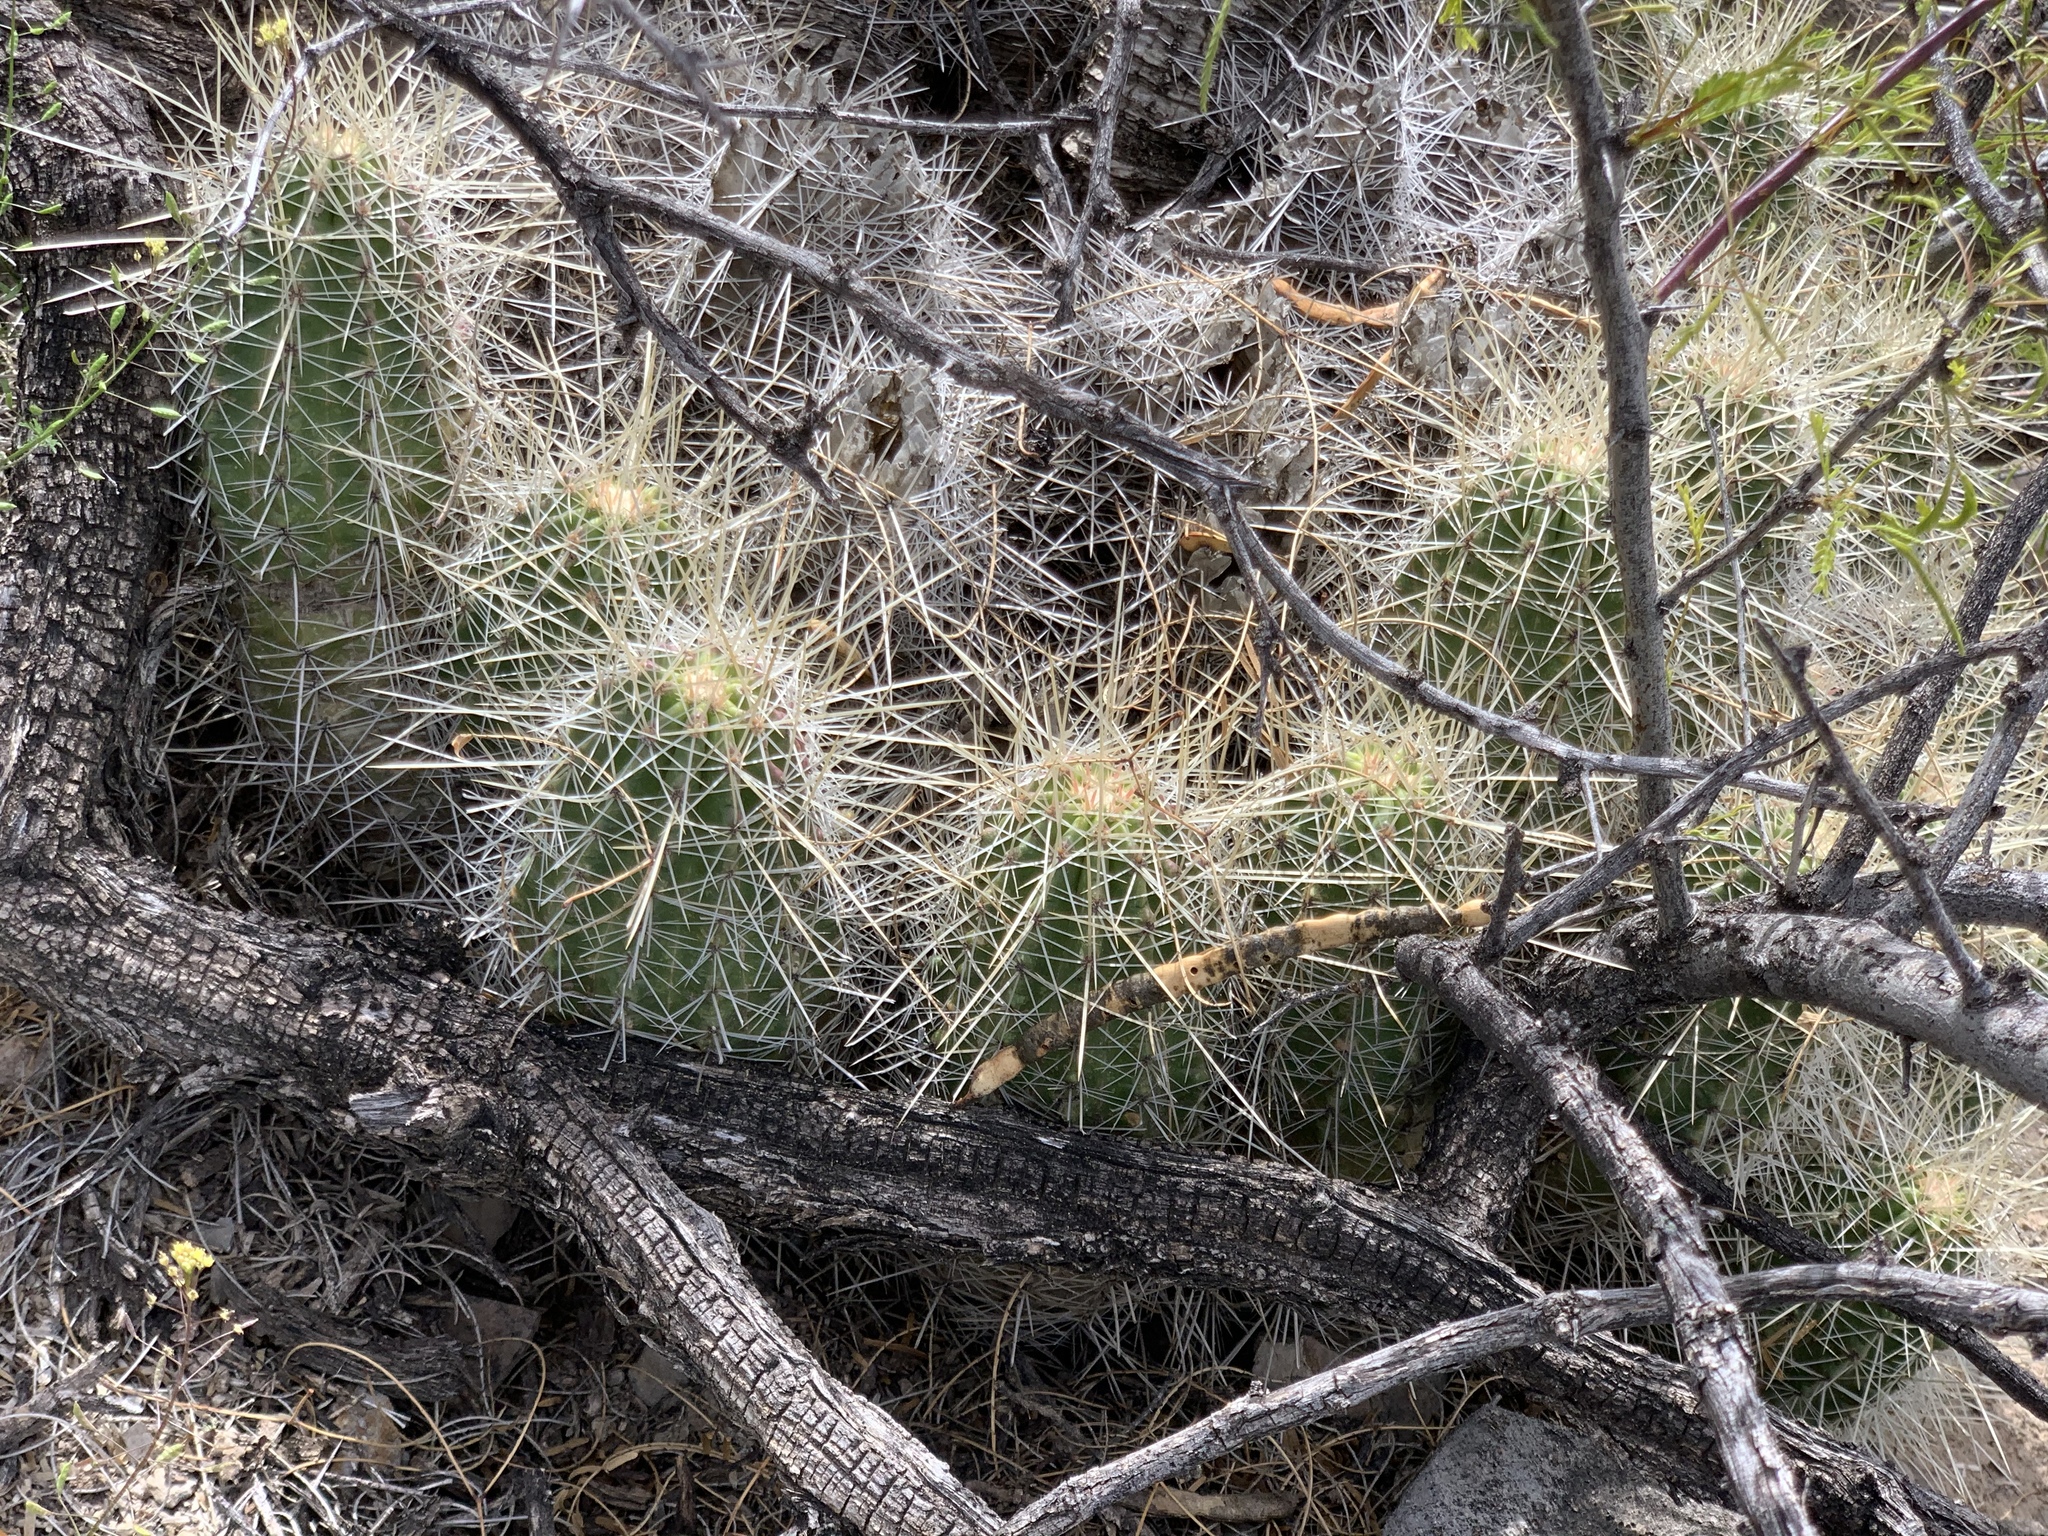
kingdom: Plantae
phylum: Tracheophyta
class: Magnoliopsida
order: Caryophyllales
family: Cactaceae
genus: Echinocereus
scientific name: Echinocereus stramineus
